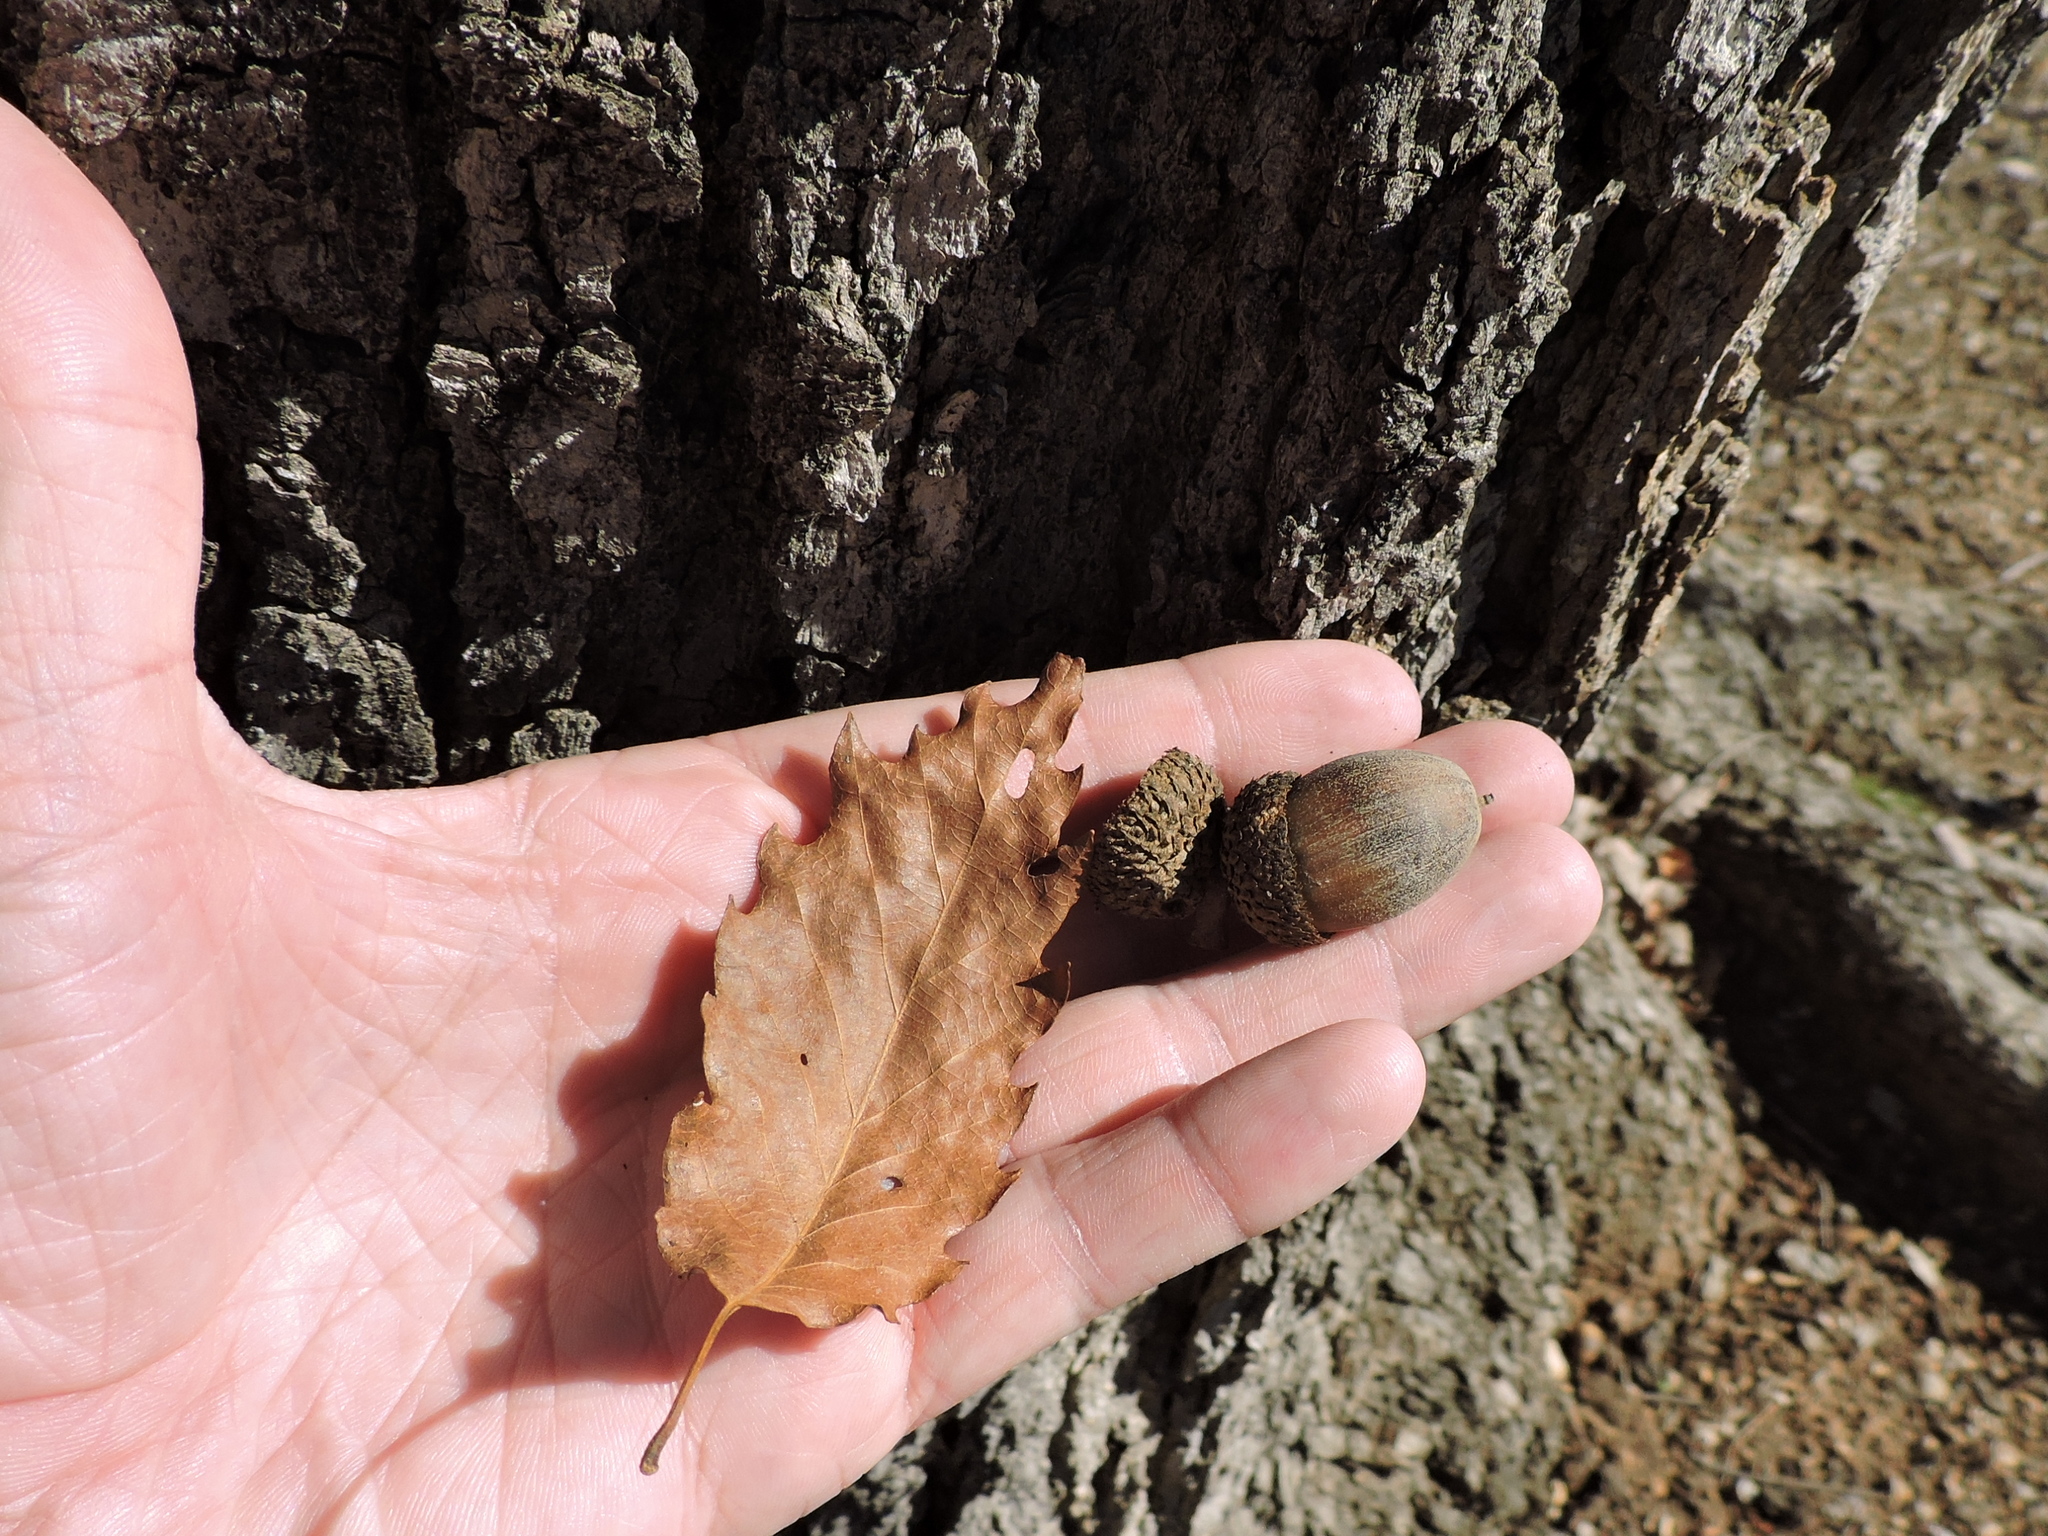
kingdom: Plantae
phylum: Tracheophyta
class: Magnoliopsida
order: Fagales
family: Fagaceae
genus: Quercus
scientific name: Quercus muehlenbergii
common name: Chinkapin oak
